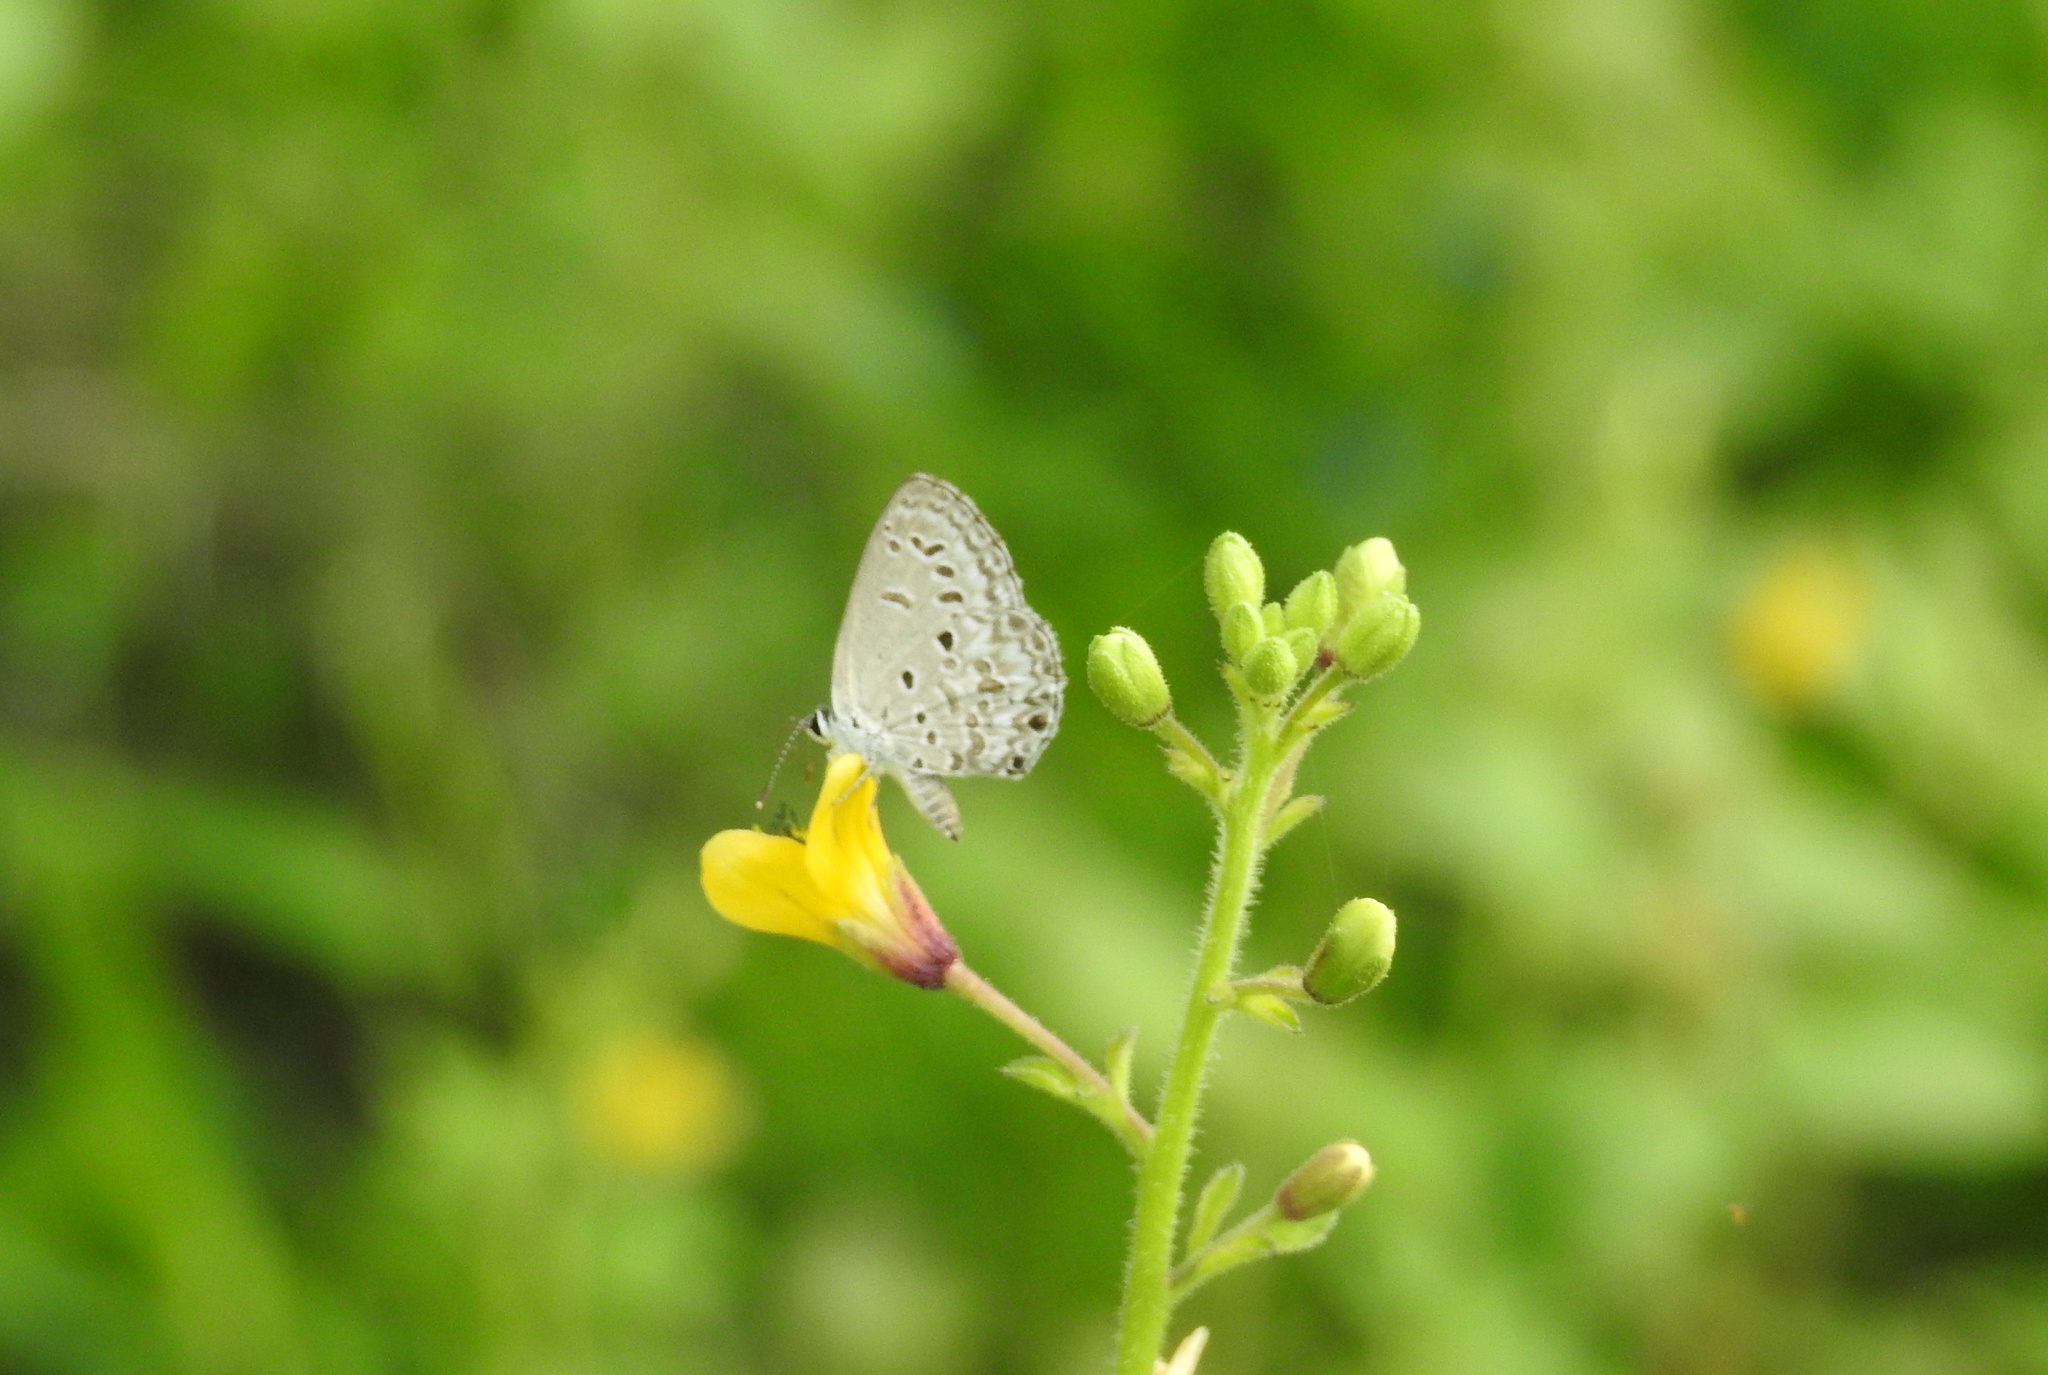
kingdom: Animalia
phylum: Arthropoda
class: Insecta
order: Lepidoptera
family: Lycaenidae
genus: Chilades
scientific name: Chilades laius
